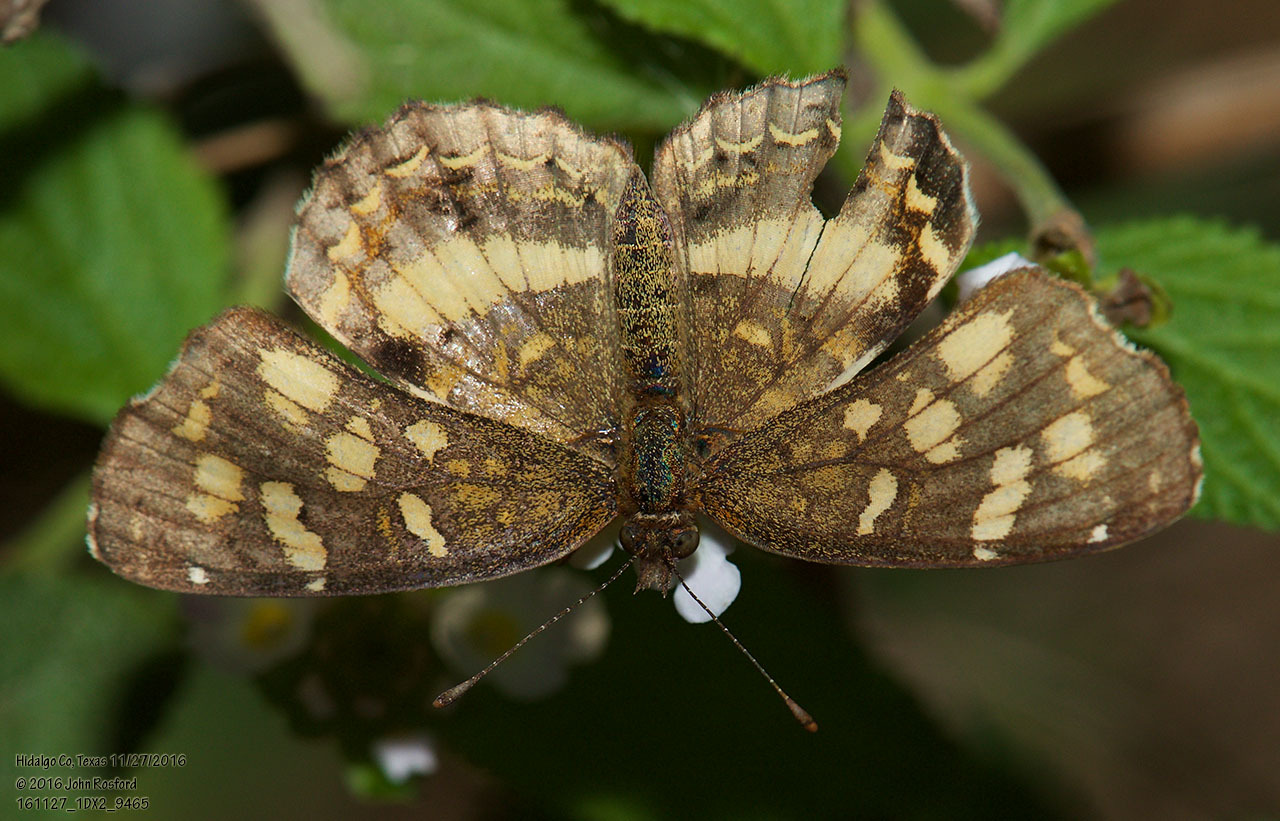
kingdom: Animalia
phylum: Arthropoda
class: Insecta
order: Lepidoptera
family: Nymphalidae
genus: Anthanassa
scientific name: Anthanassa tulcis
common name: Pale-banded crescent
